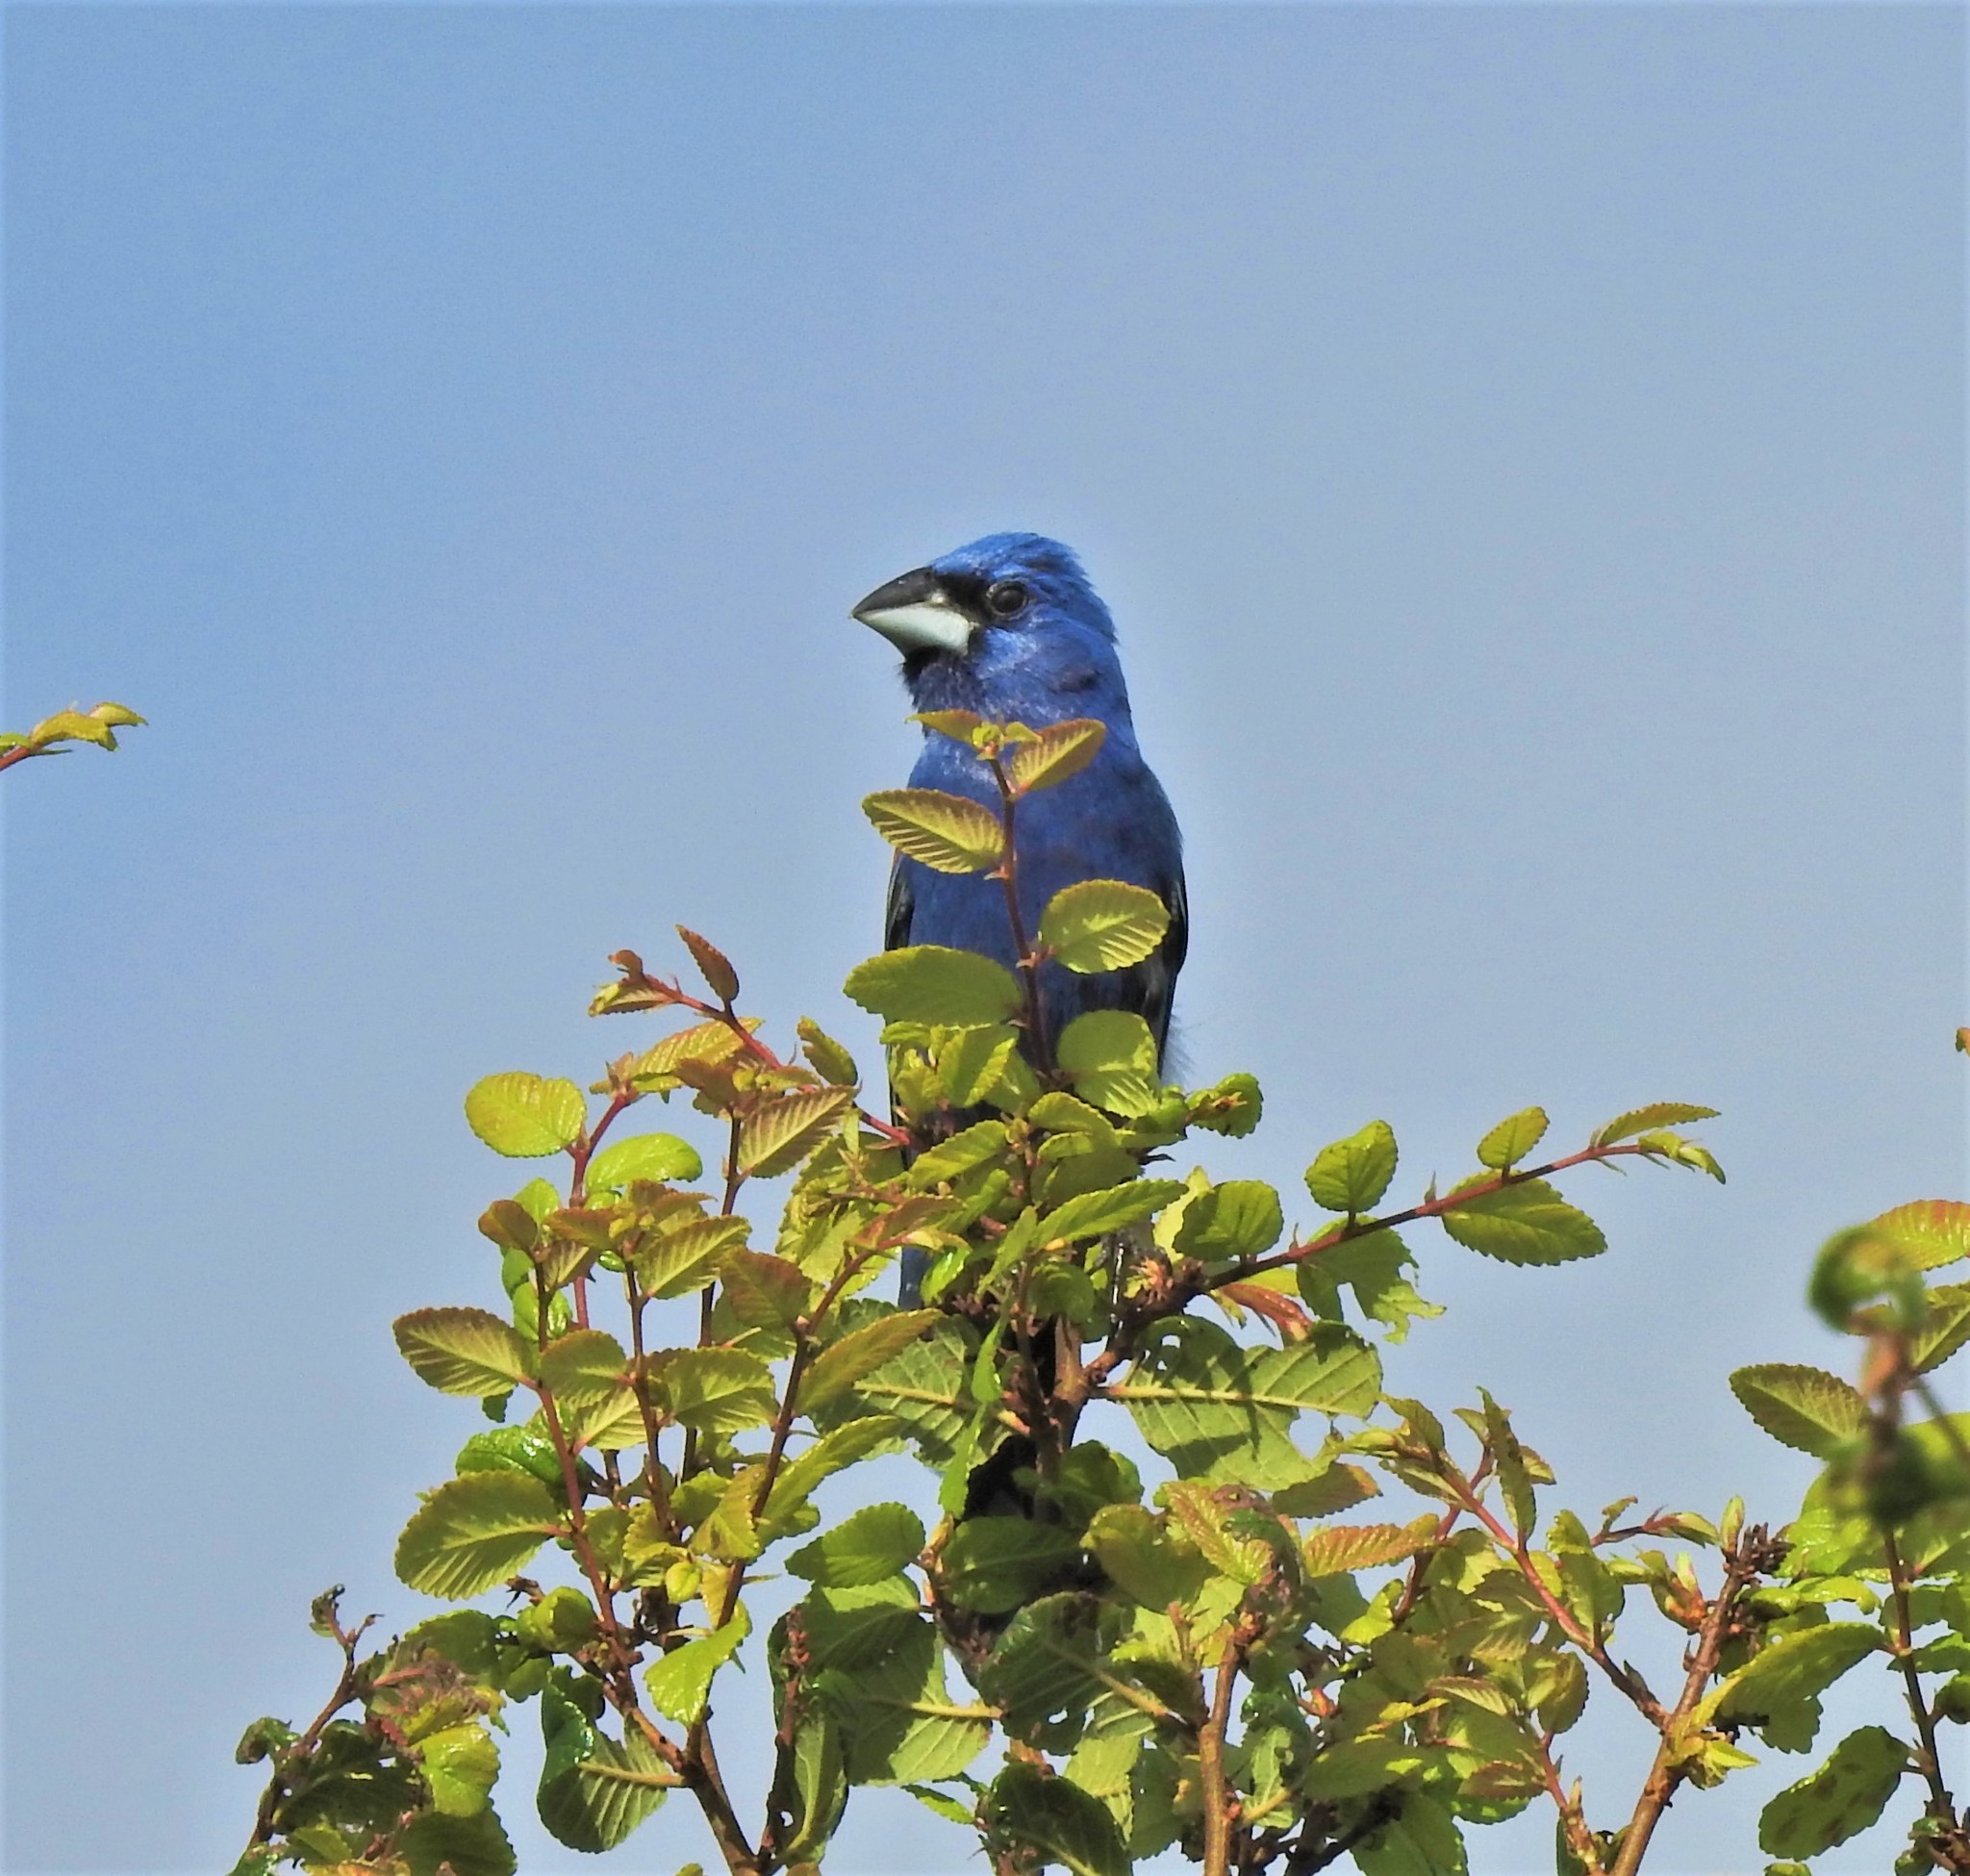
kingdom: Animalia
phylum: Chordata
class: Aves
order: Passeriformes
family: Cardinalidae
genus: Passerina
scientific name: Passerina caerulea
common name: Blue grosbeak
